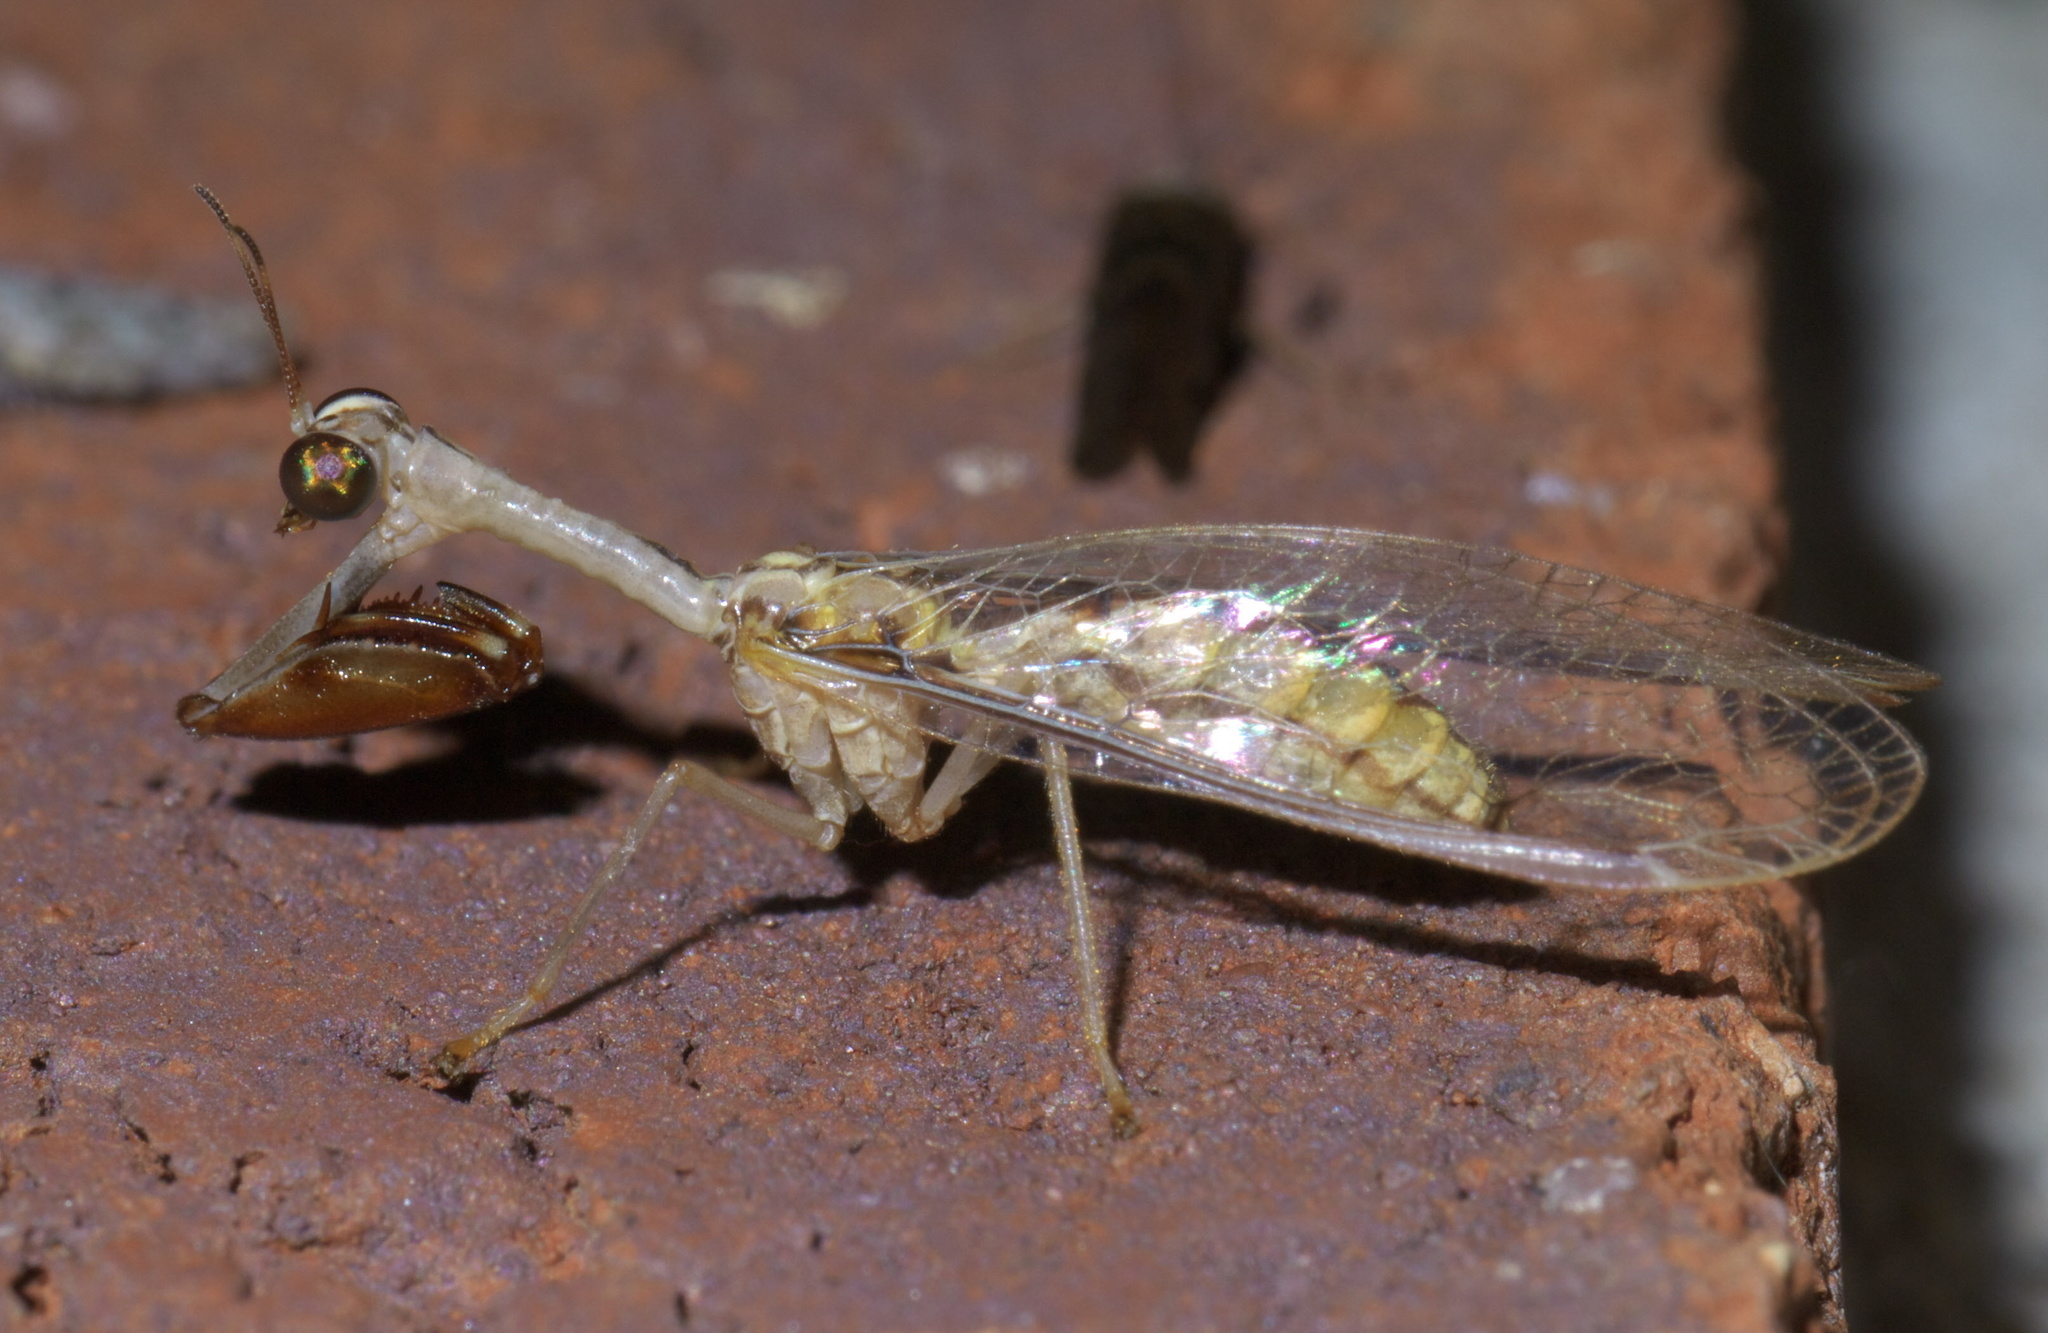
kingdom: Animalia
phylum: Arthropoda
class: Insecta
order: Neuroptera
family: Mantispidae
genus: Dicromantispa
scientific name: Dicromantispa interrupta
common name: Four-spotted mantidfly
